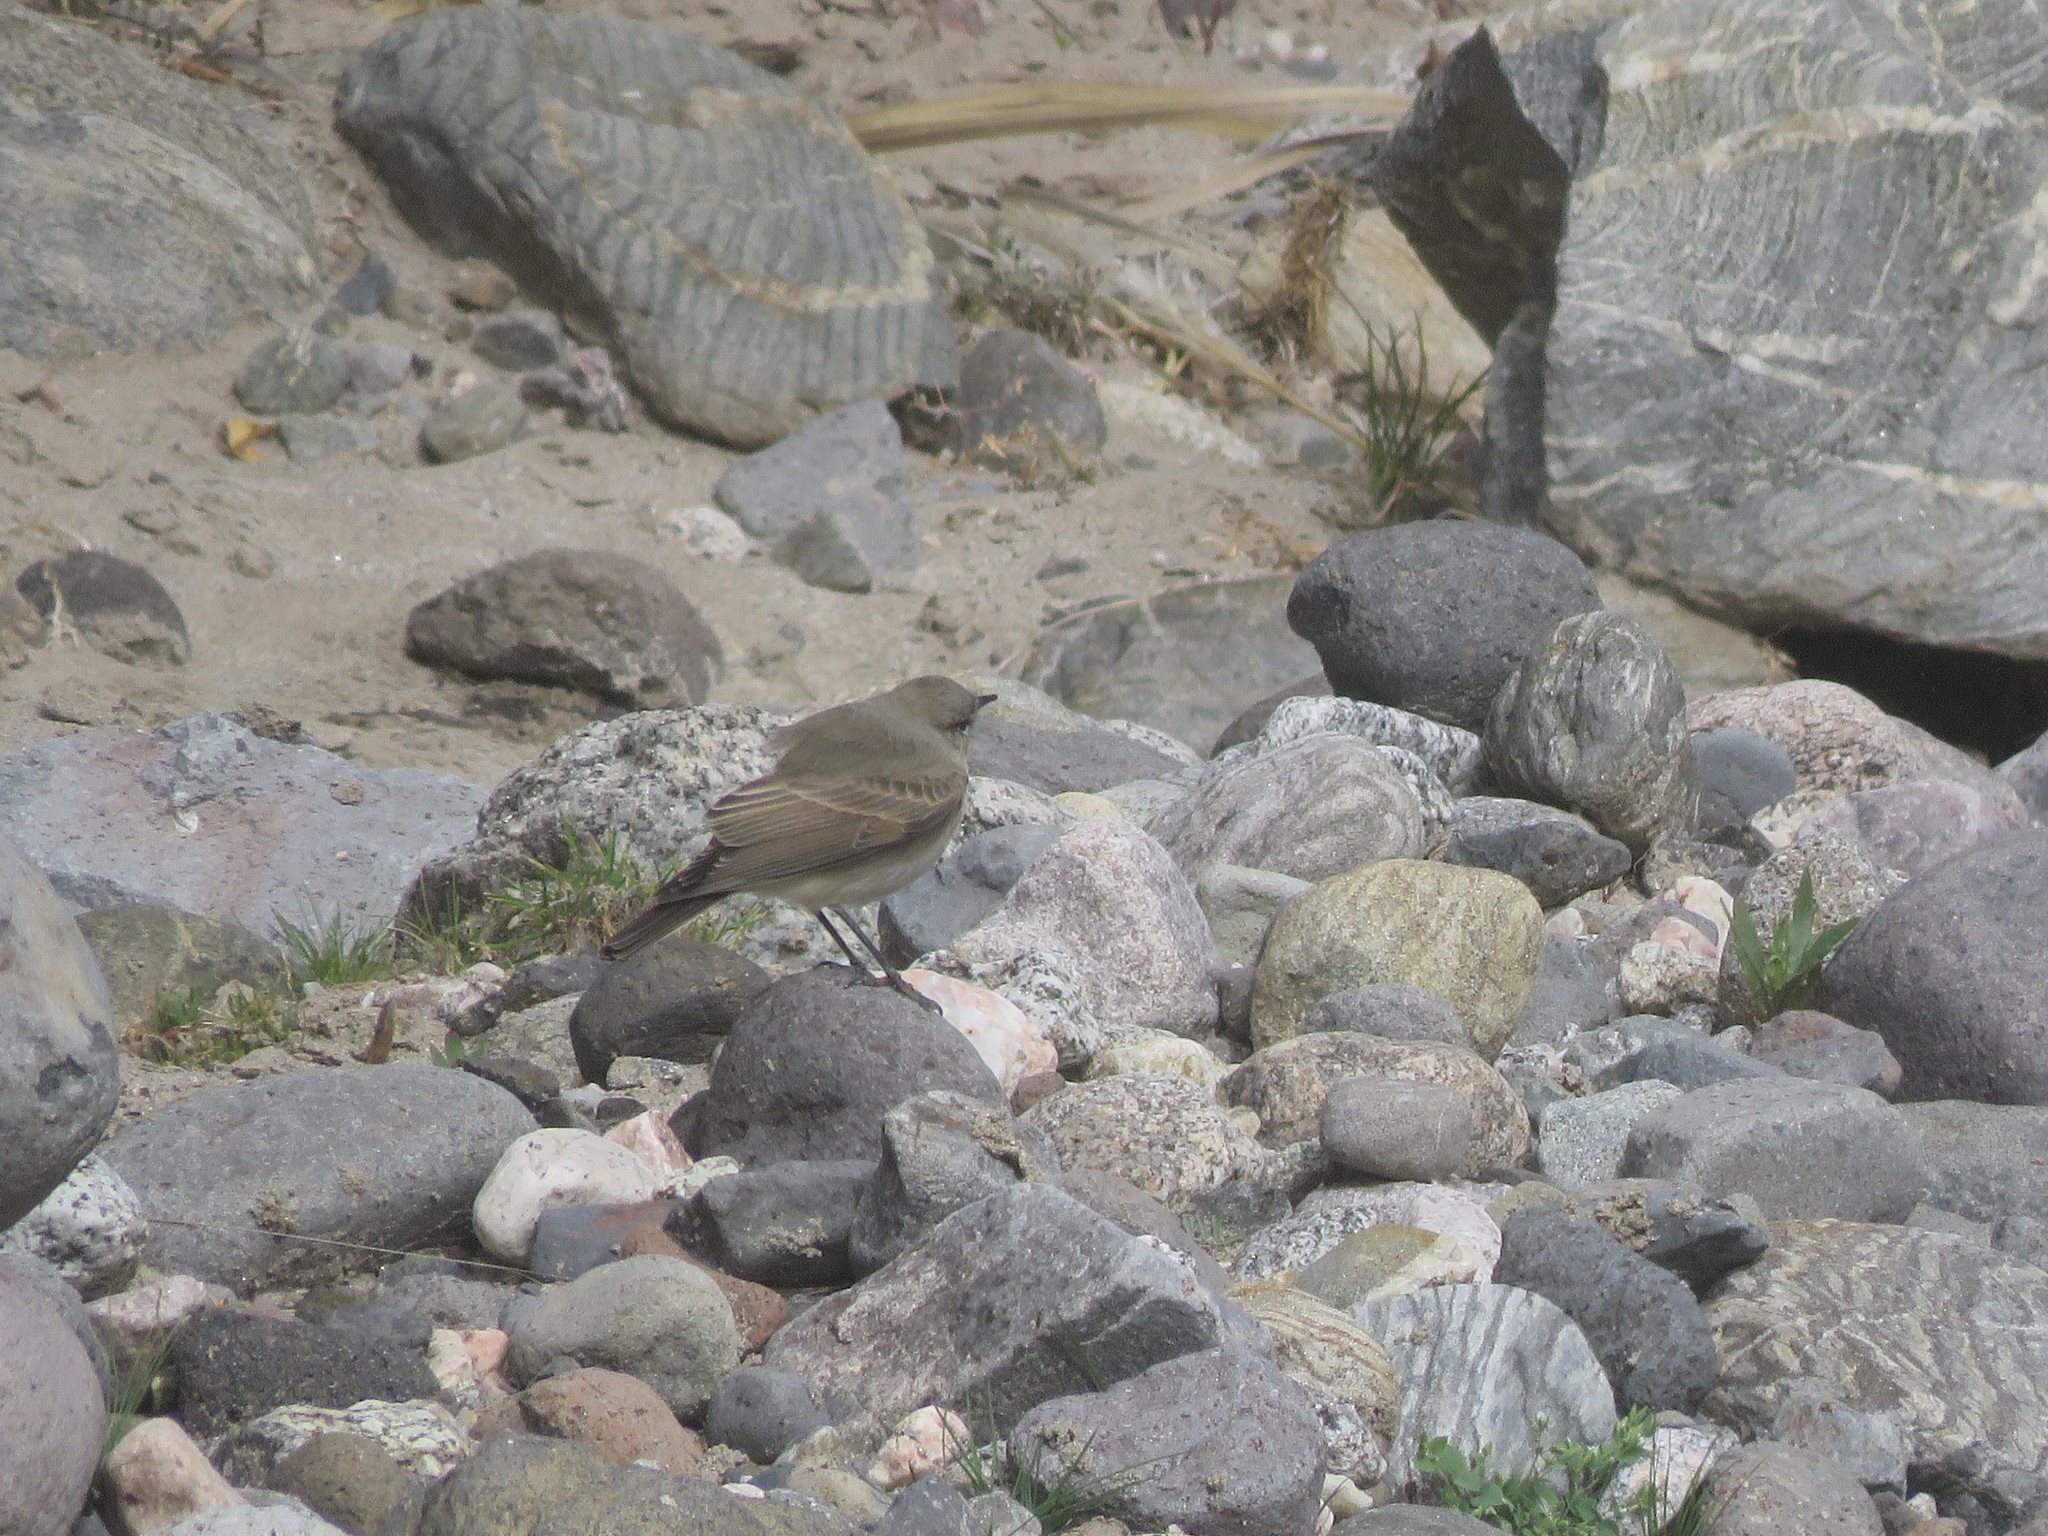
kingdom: Animalia
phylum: Chordata
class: Aves
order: Passeriformes
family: Tyrannidae
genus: Muscisaxicola
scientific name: Muscisaxicola maculirostris
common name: Spot-billed ground tyrant
